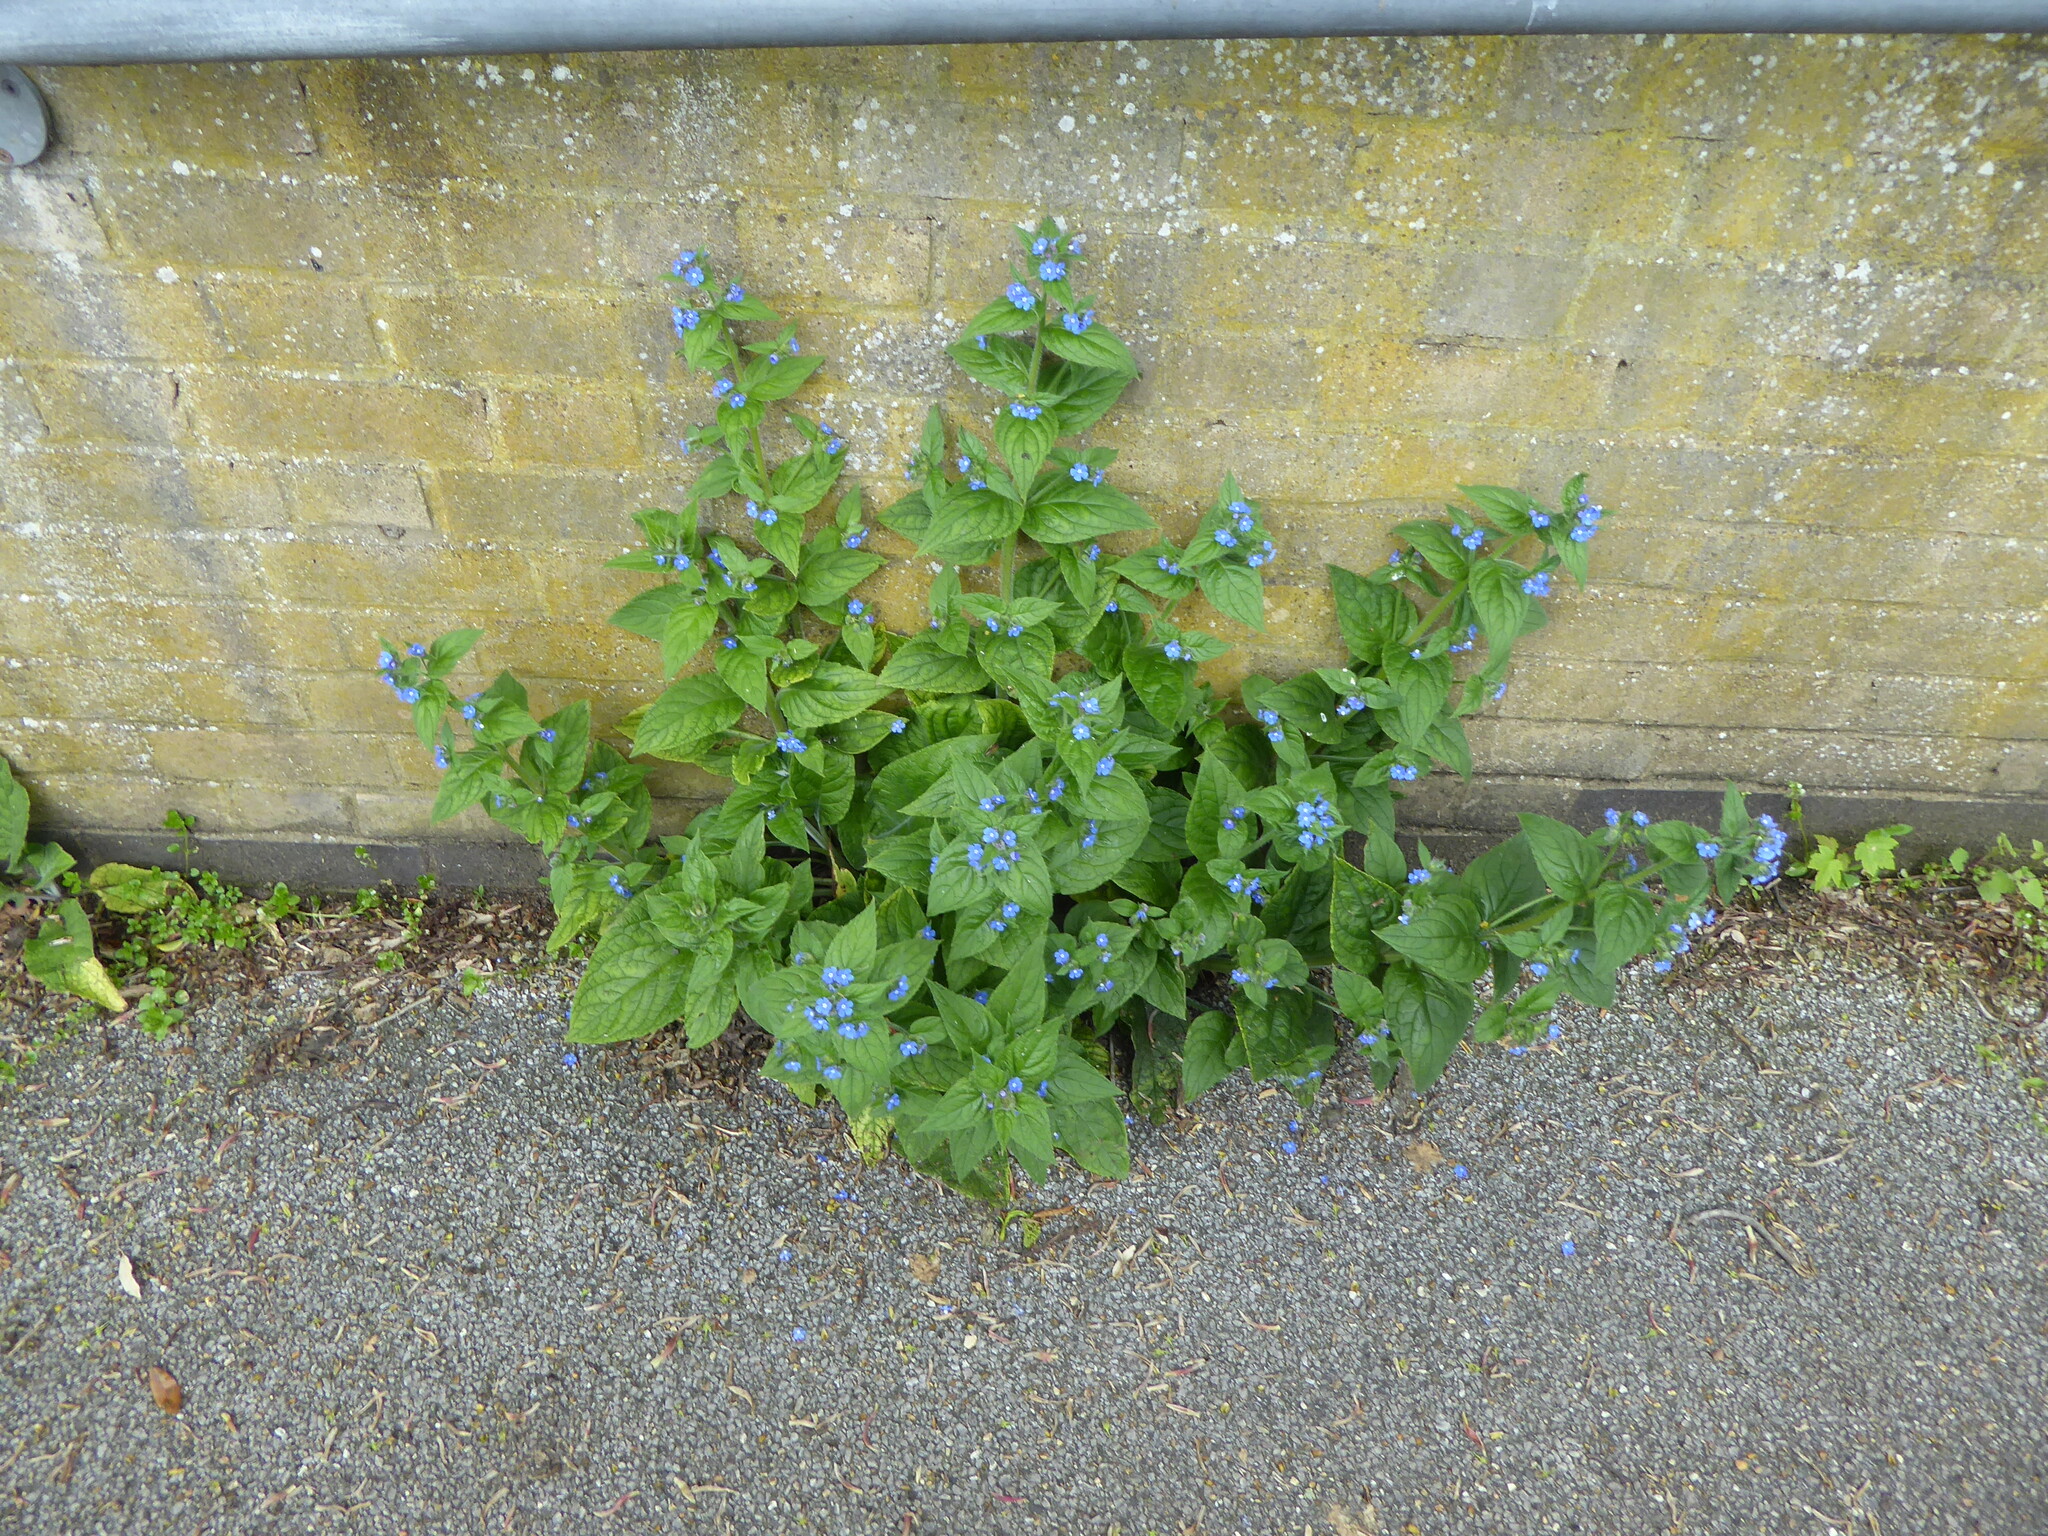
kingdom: Plantae
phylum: Tracheophyta
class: Magnoliopsida
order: Boraginales
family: Boraginaceae
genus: Pentaglottis
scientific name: Pentaglottis sempervirens
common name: Green alkanet
